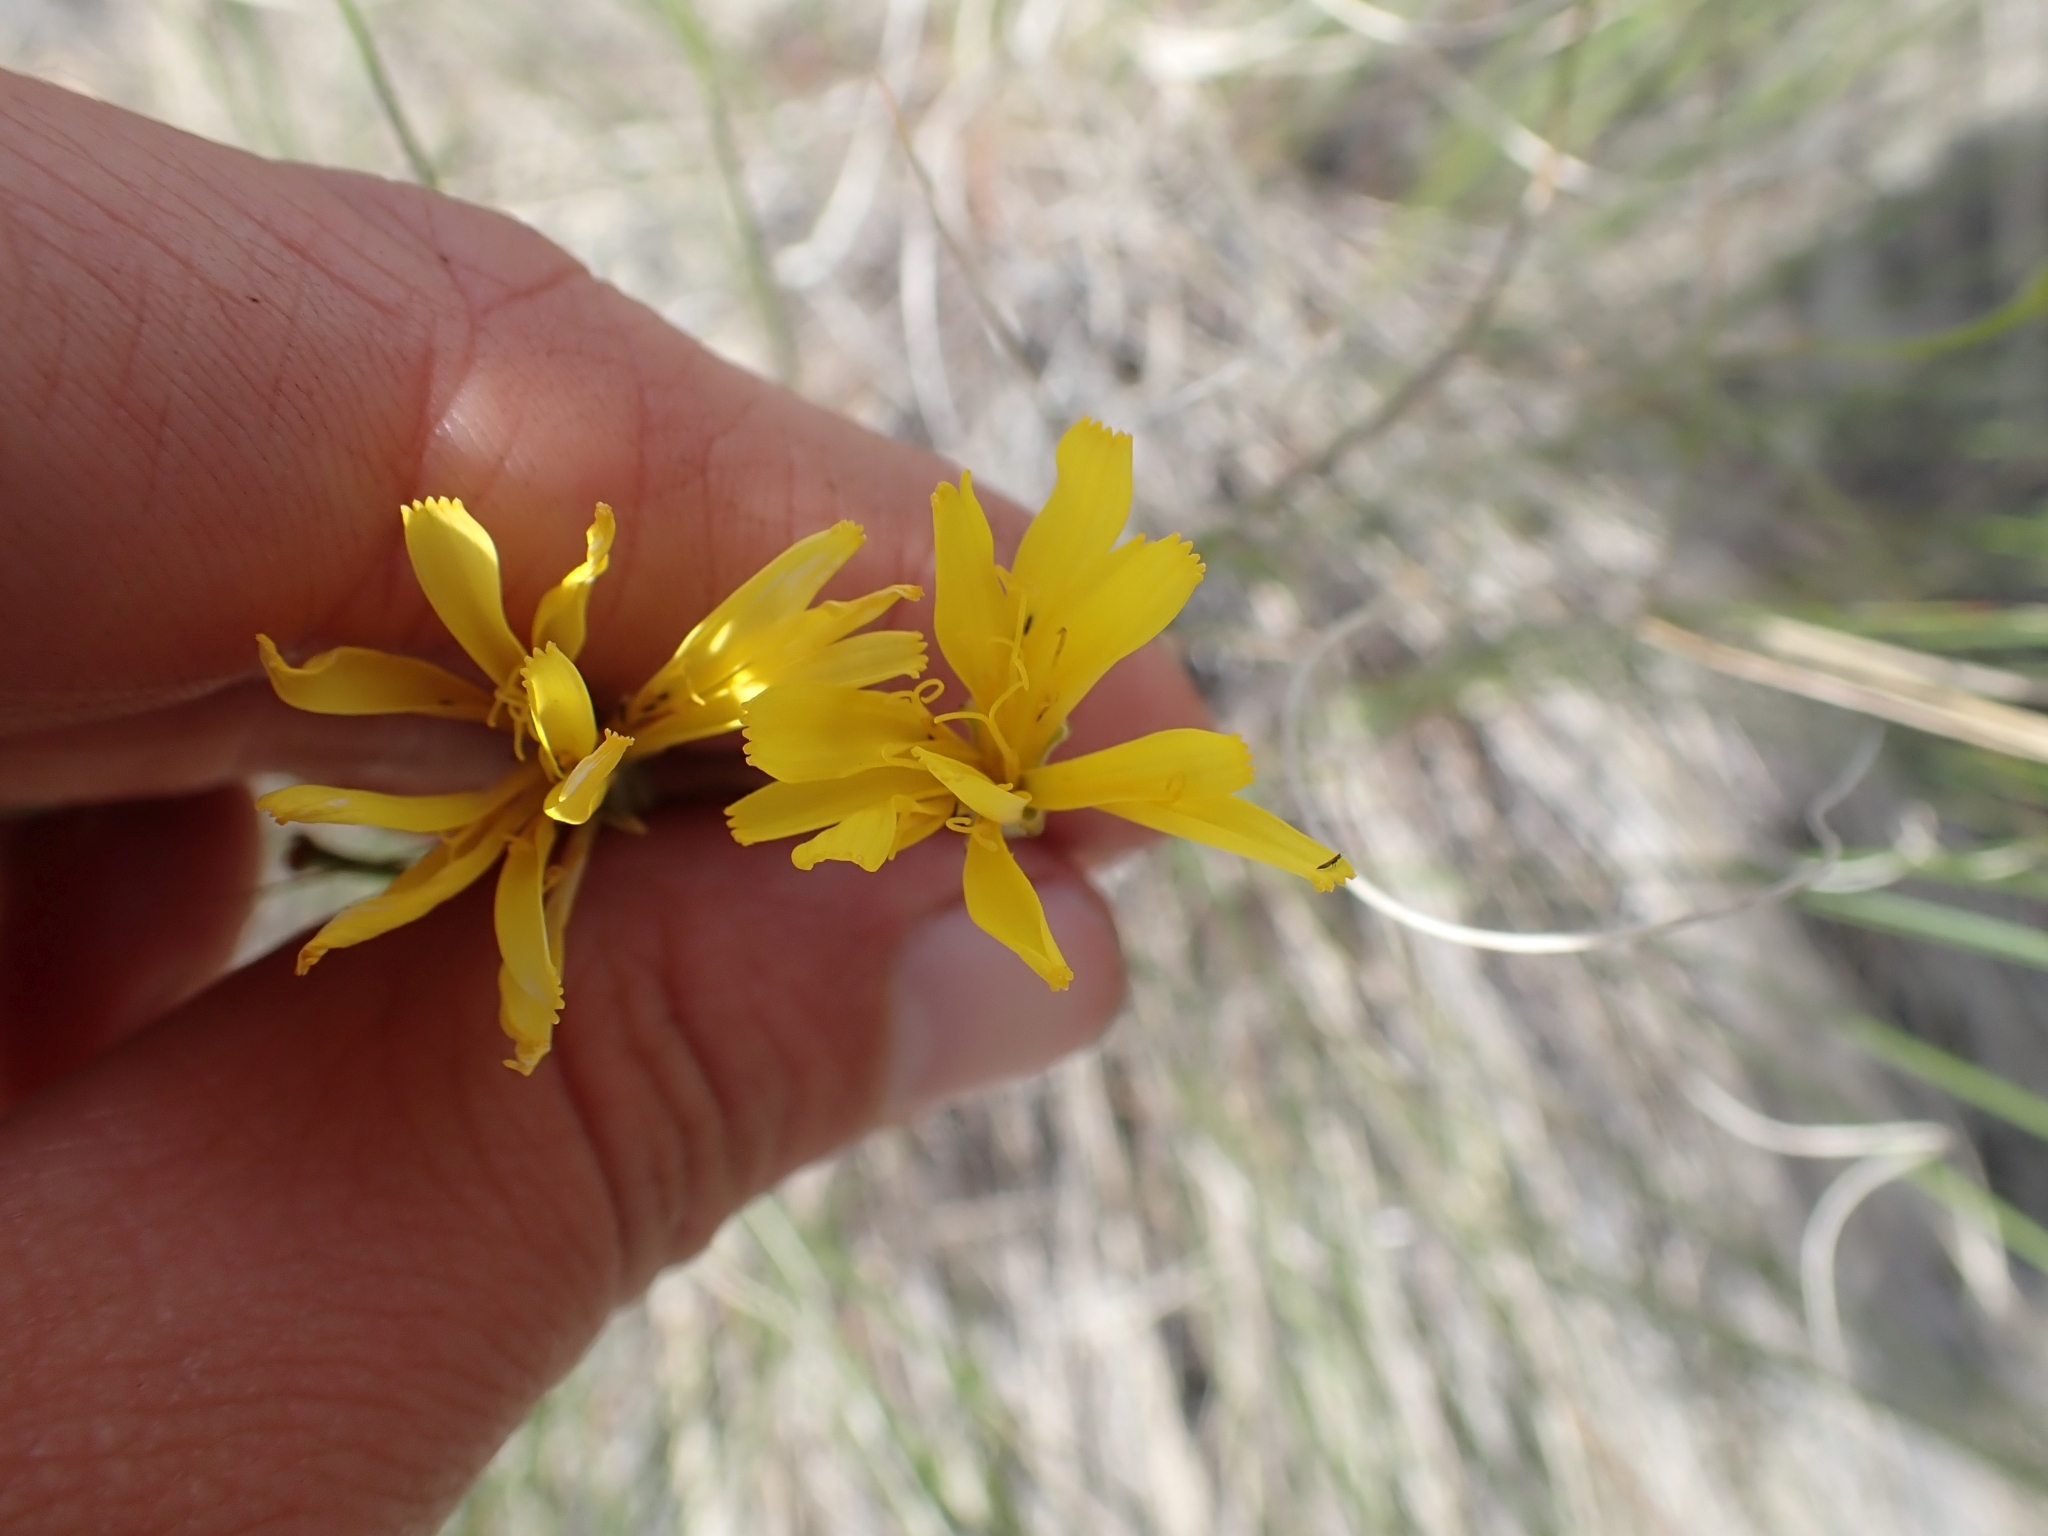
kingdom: Plantae
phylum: Tracheophyta
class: Magnoliopsida
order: Asterales
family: Asteraceae
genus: Crepis
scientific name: Crepis atribarba
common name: Dark hawk's-beard
